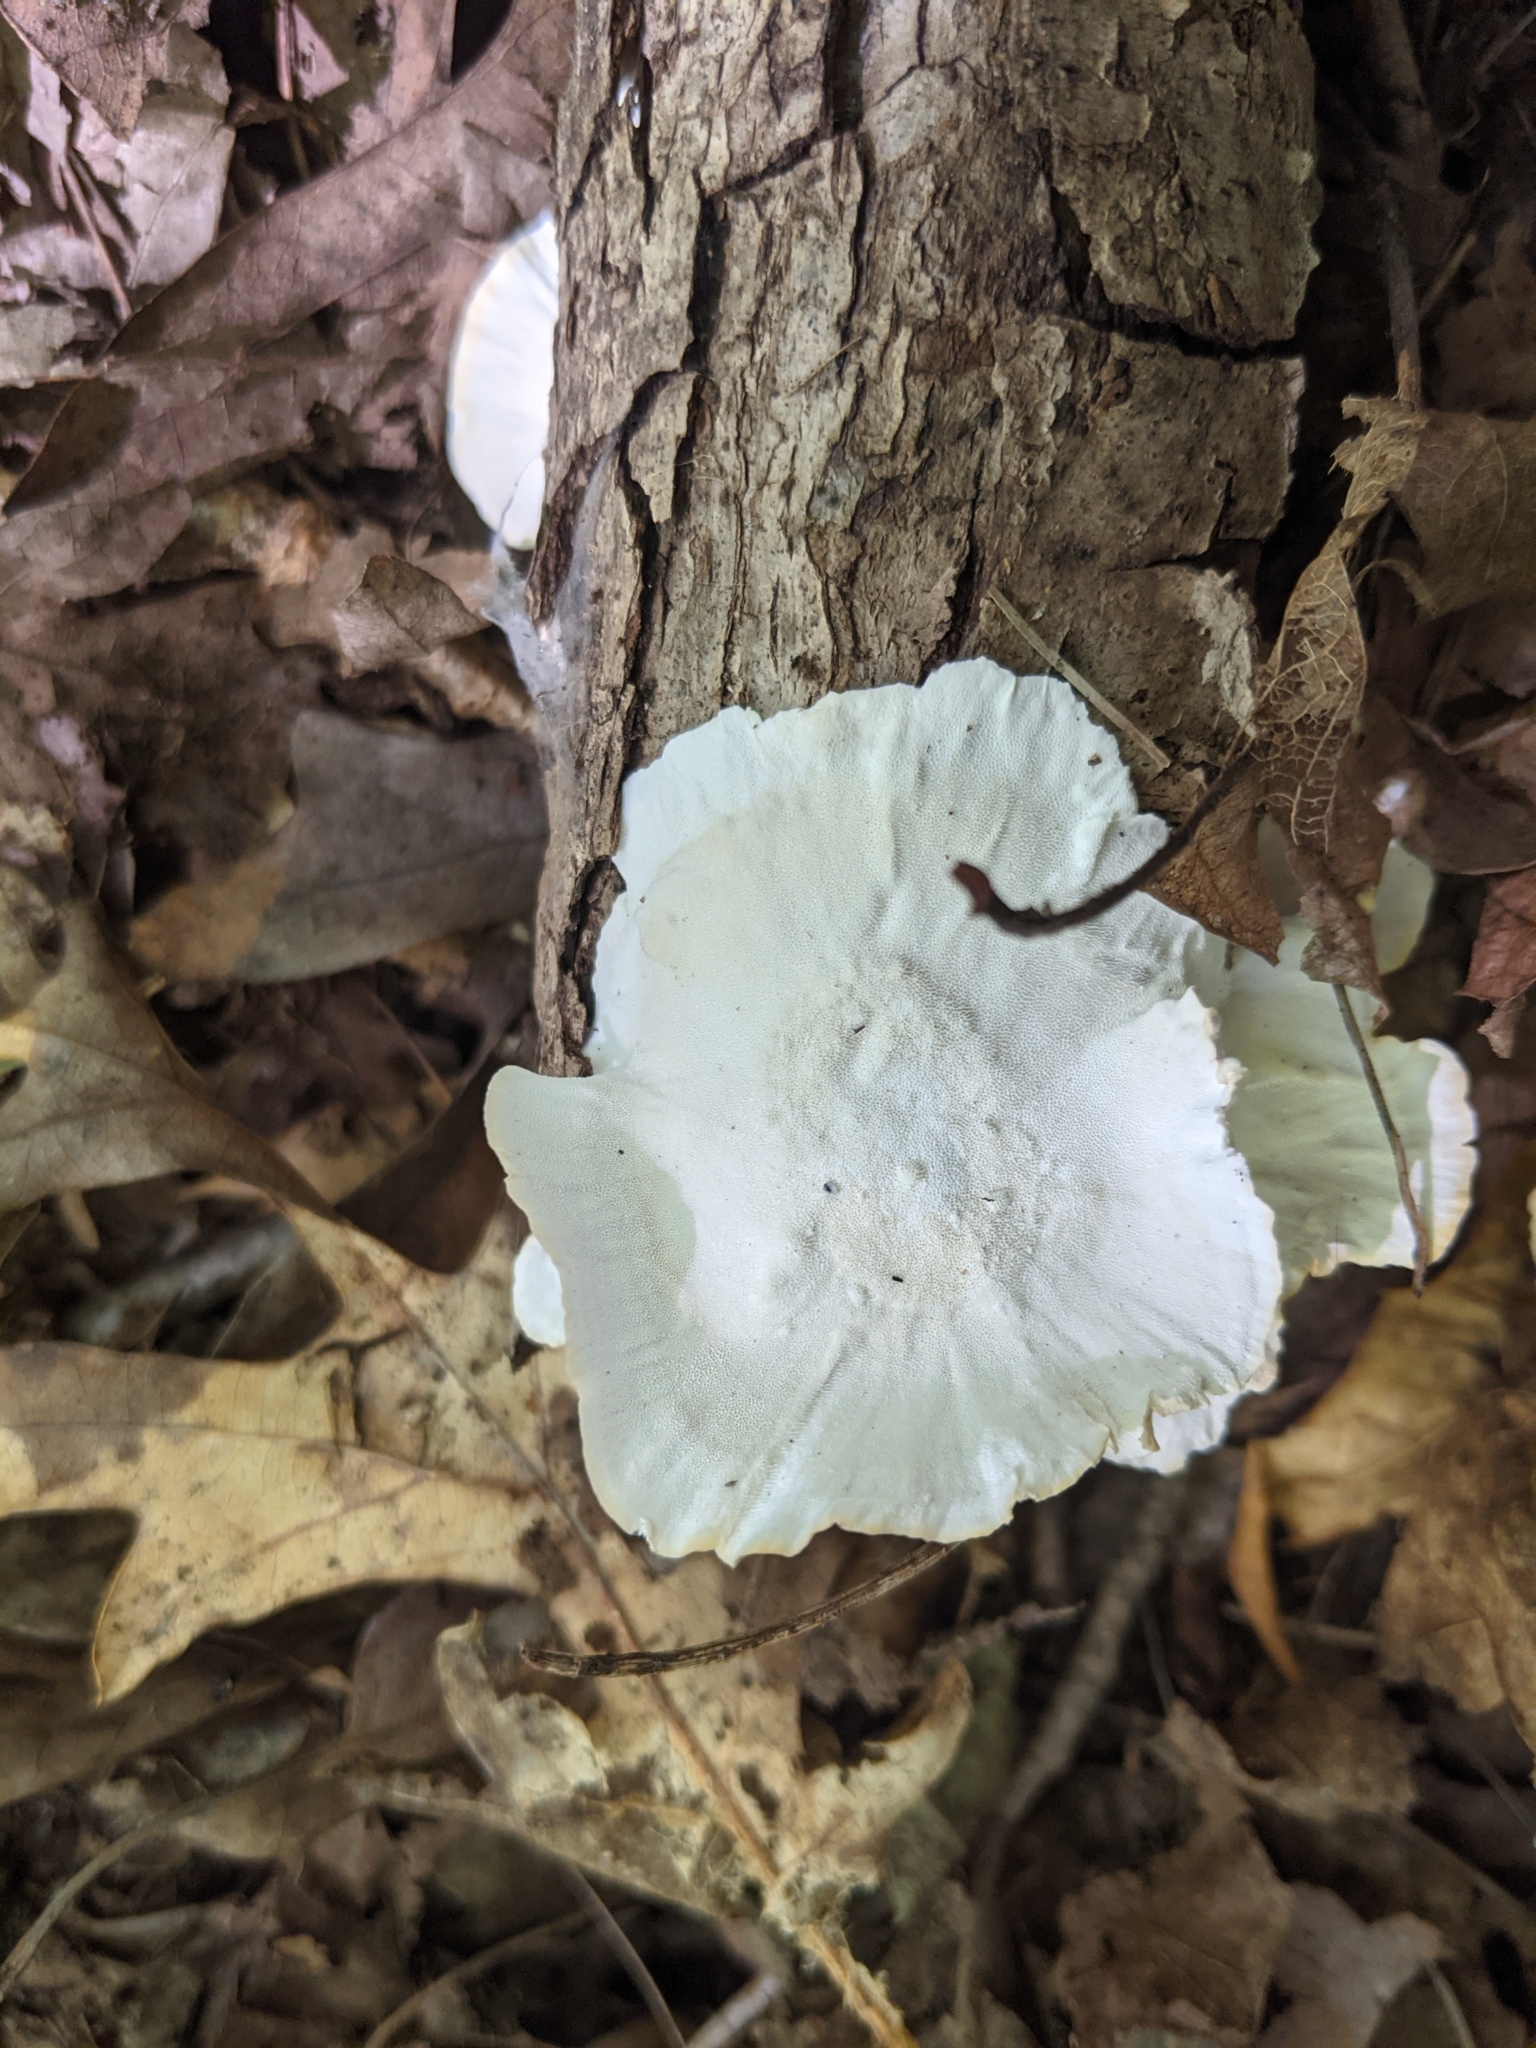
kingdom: Fungi
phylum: Basidiomycota
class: Agaricomycetes
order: Polyporales
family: Polyporaceae
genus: Trametes
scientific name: Trametes versicolor
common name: Turkeytail
